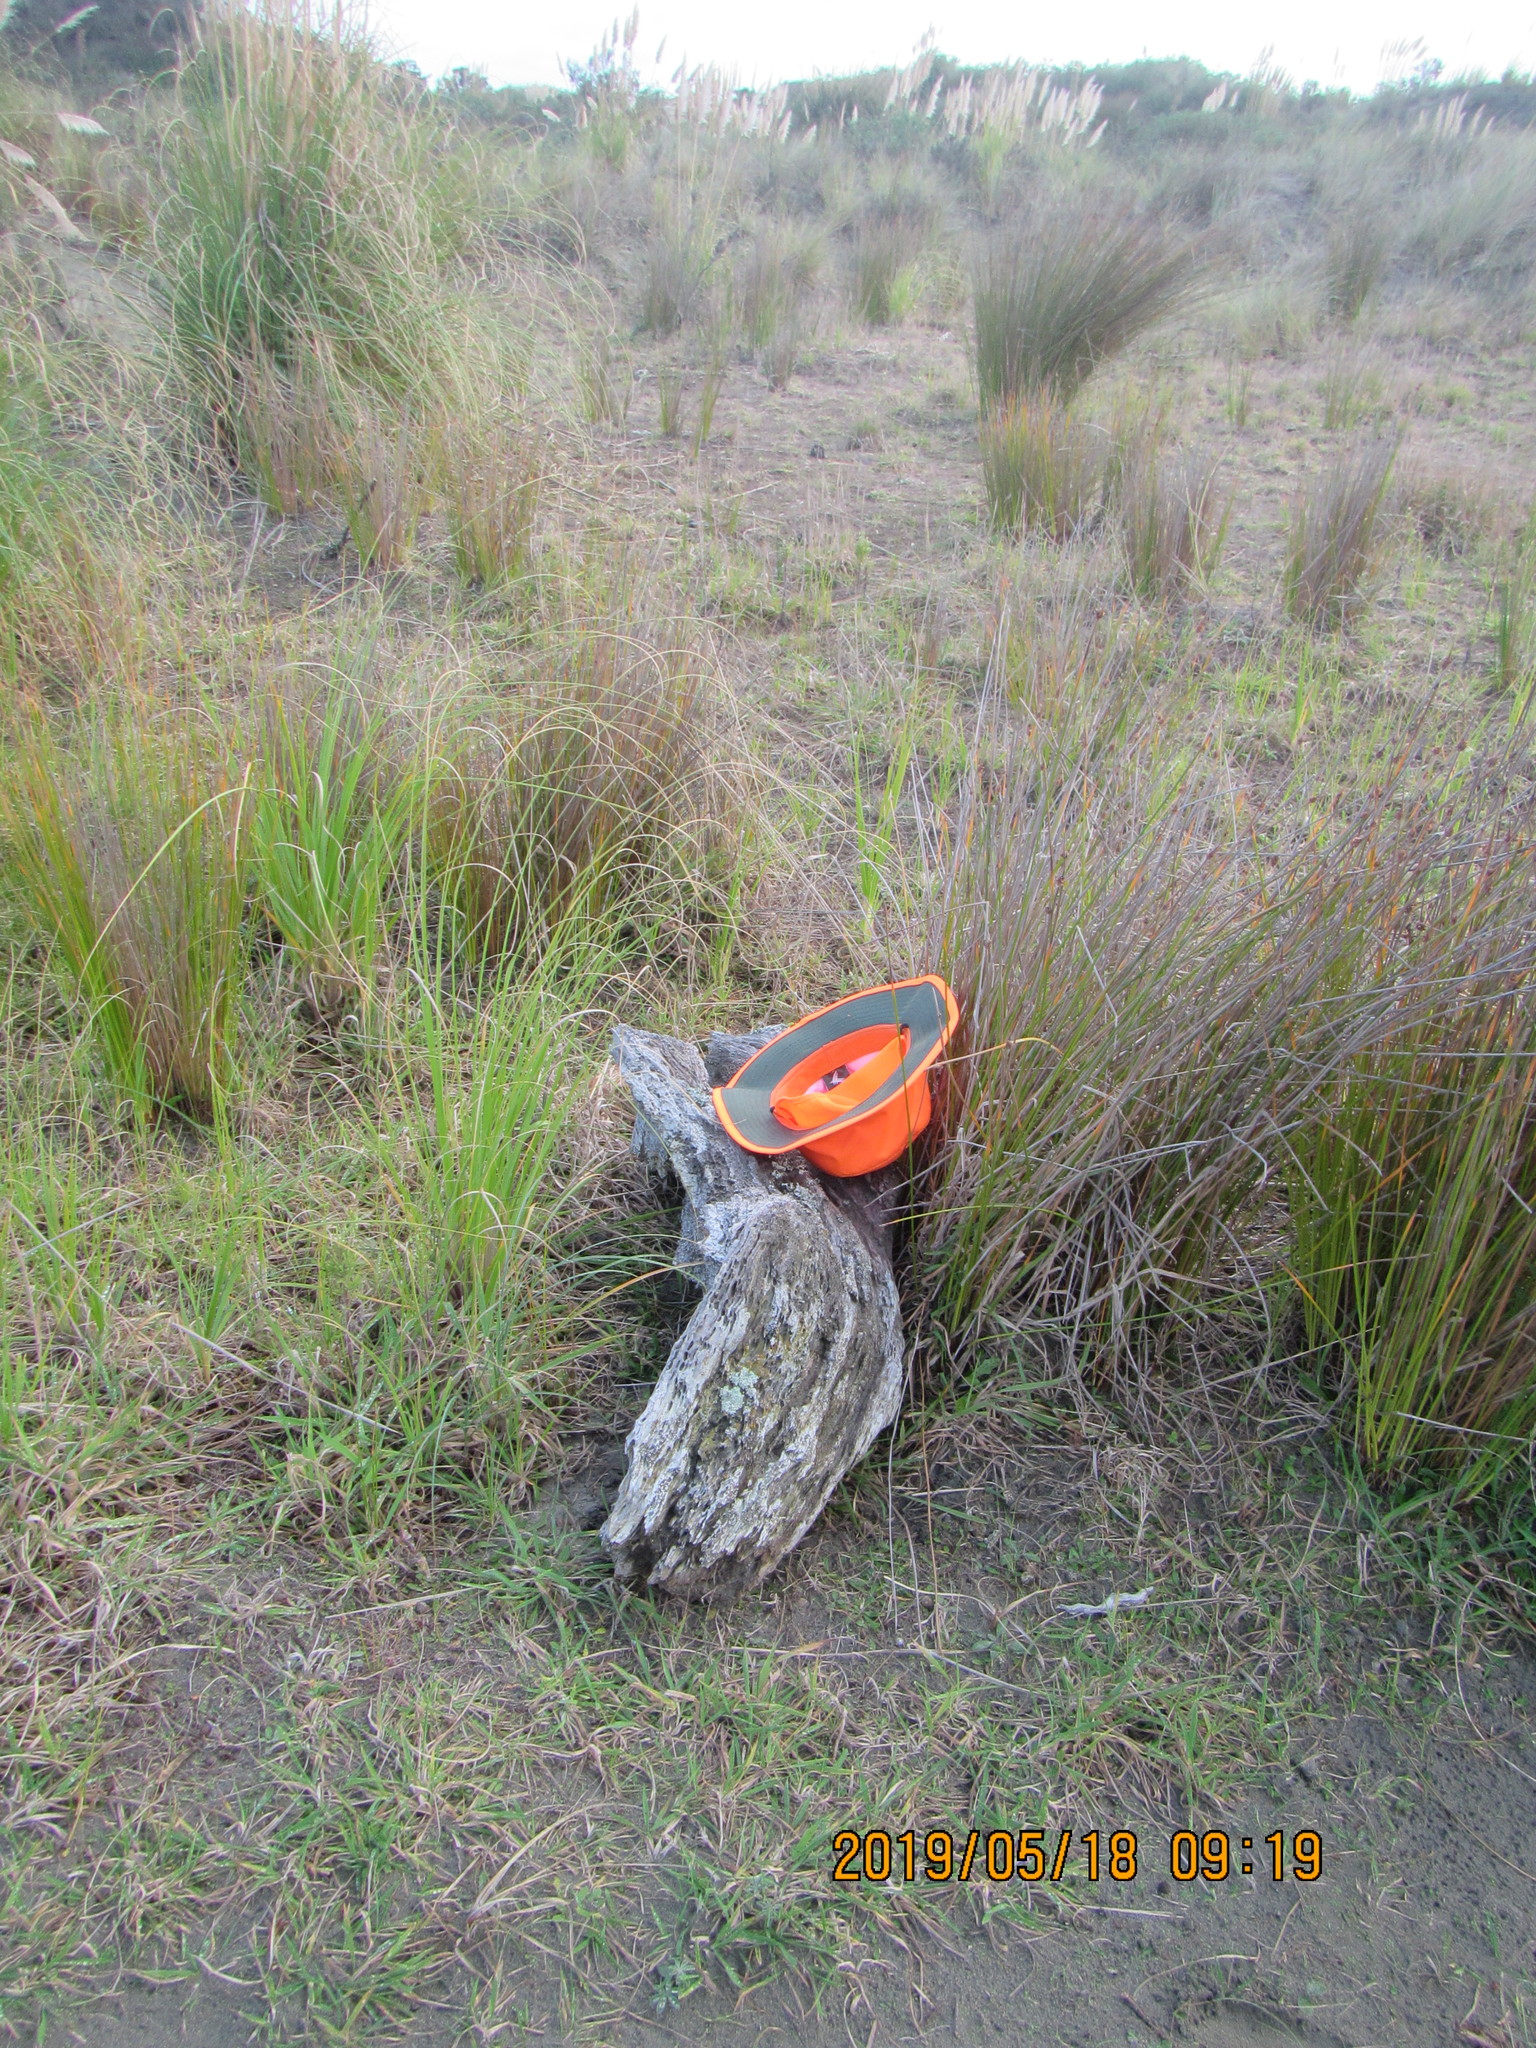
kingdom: Animalia
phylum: Platyhelminthes
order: Tricladida
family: Geoplanidae
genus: Caenoplana
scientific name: Caenoplana coerulea
